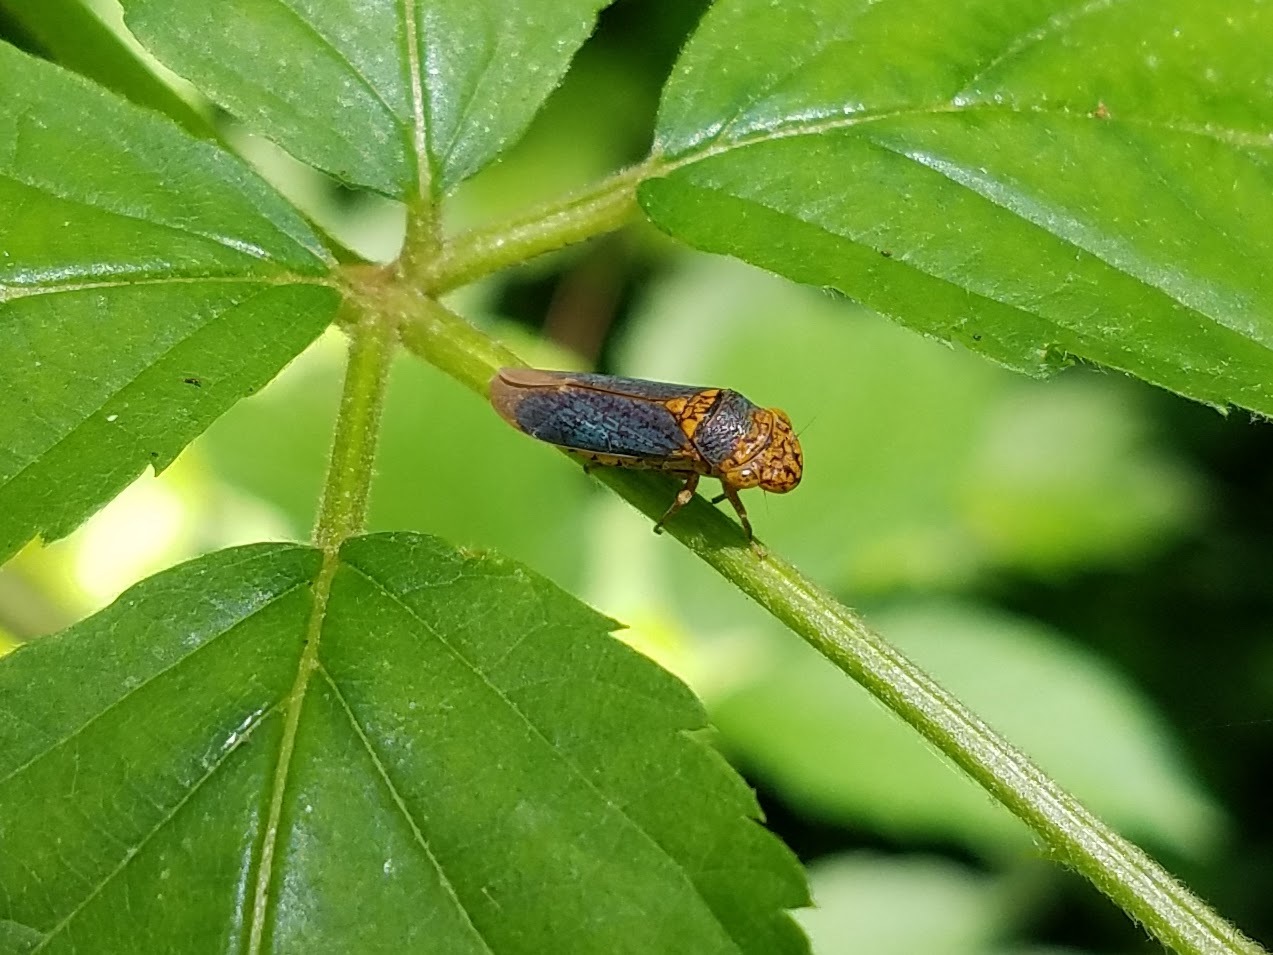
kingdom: Animalia
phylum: Arthropoda
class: Insecta
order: Hemiptera
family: Cicadellidae
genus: Oncometopia
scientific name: Oncometopia orbona
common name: Broad-headed sharpshooter
